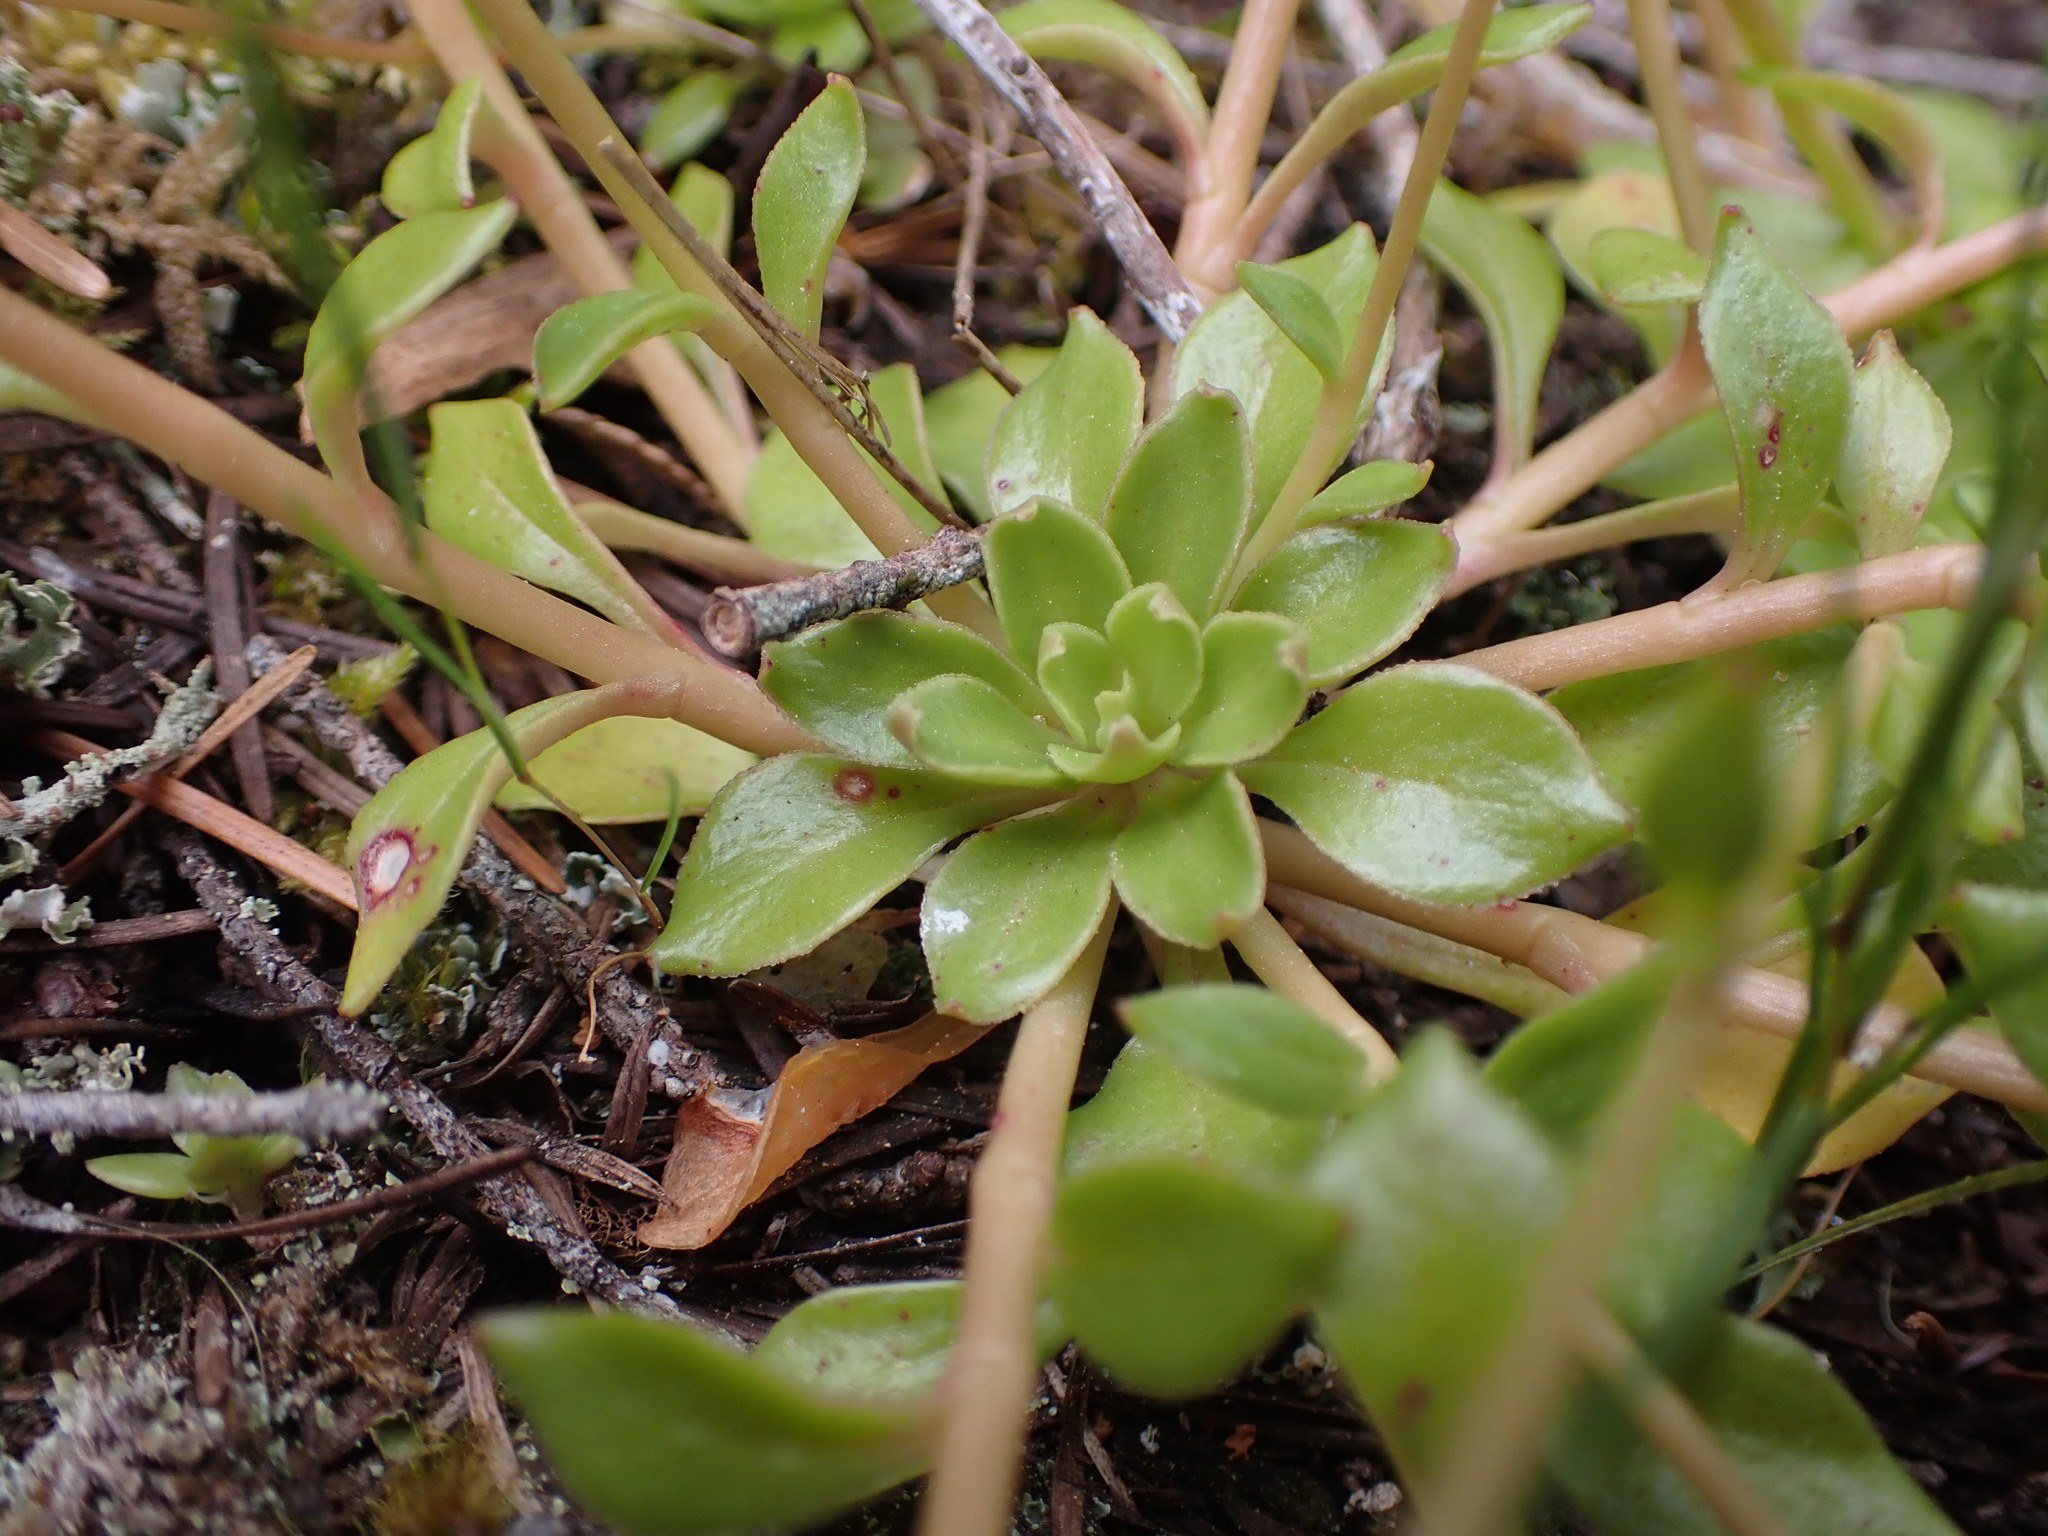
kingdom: Plantae
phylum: Tracheophyta
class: Magnoliopsida
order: Caryophyllales
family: Montiaceae
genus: Montia
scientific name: Montia parvifolia
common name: Small-leaved blinks
